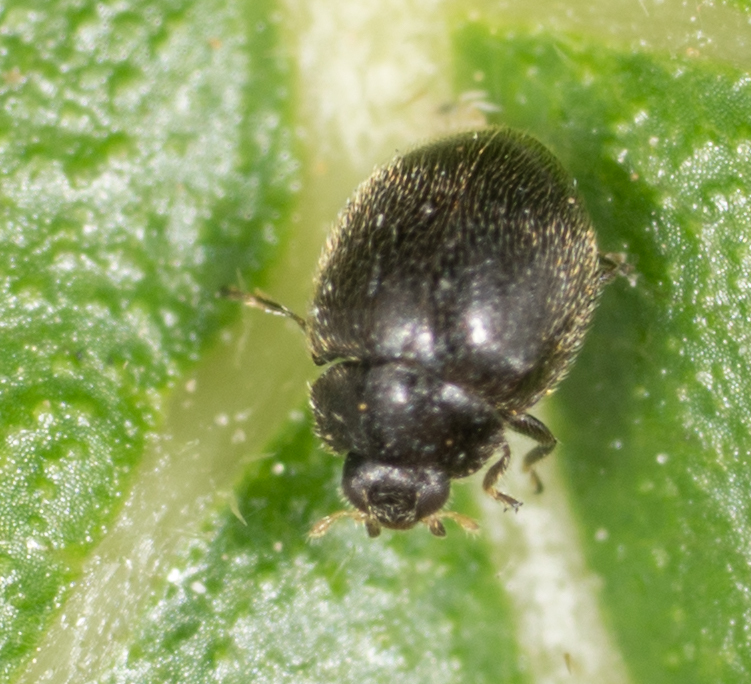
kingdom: Animalia
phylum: Arthropoda
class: Insecta
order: Coleoptera
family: Coccinellidae
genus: Stethorus
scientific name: Stethorus punctum
